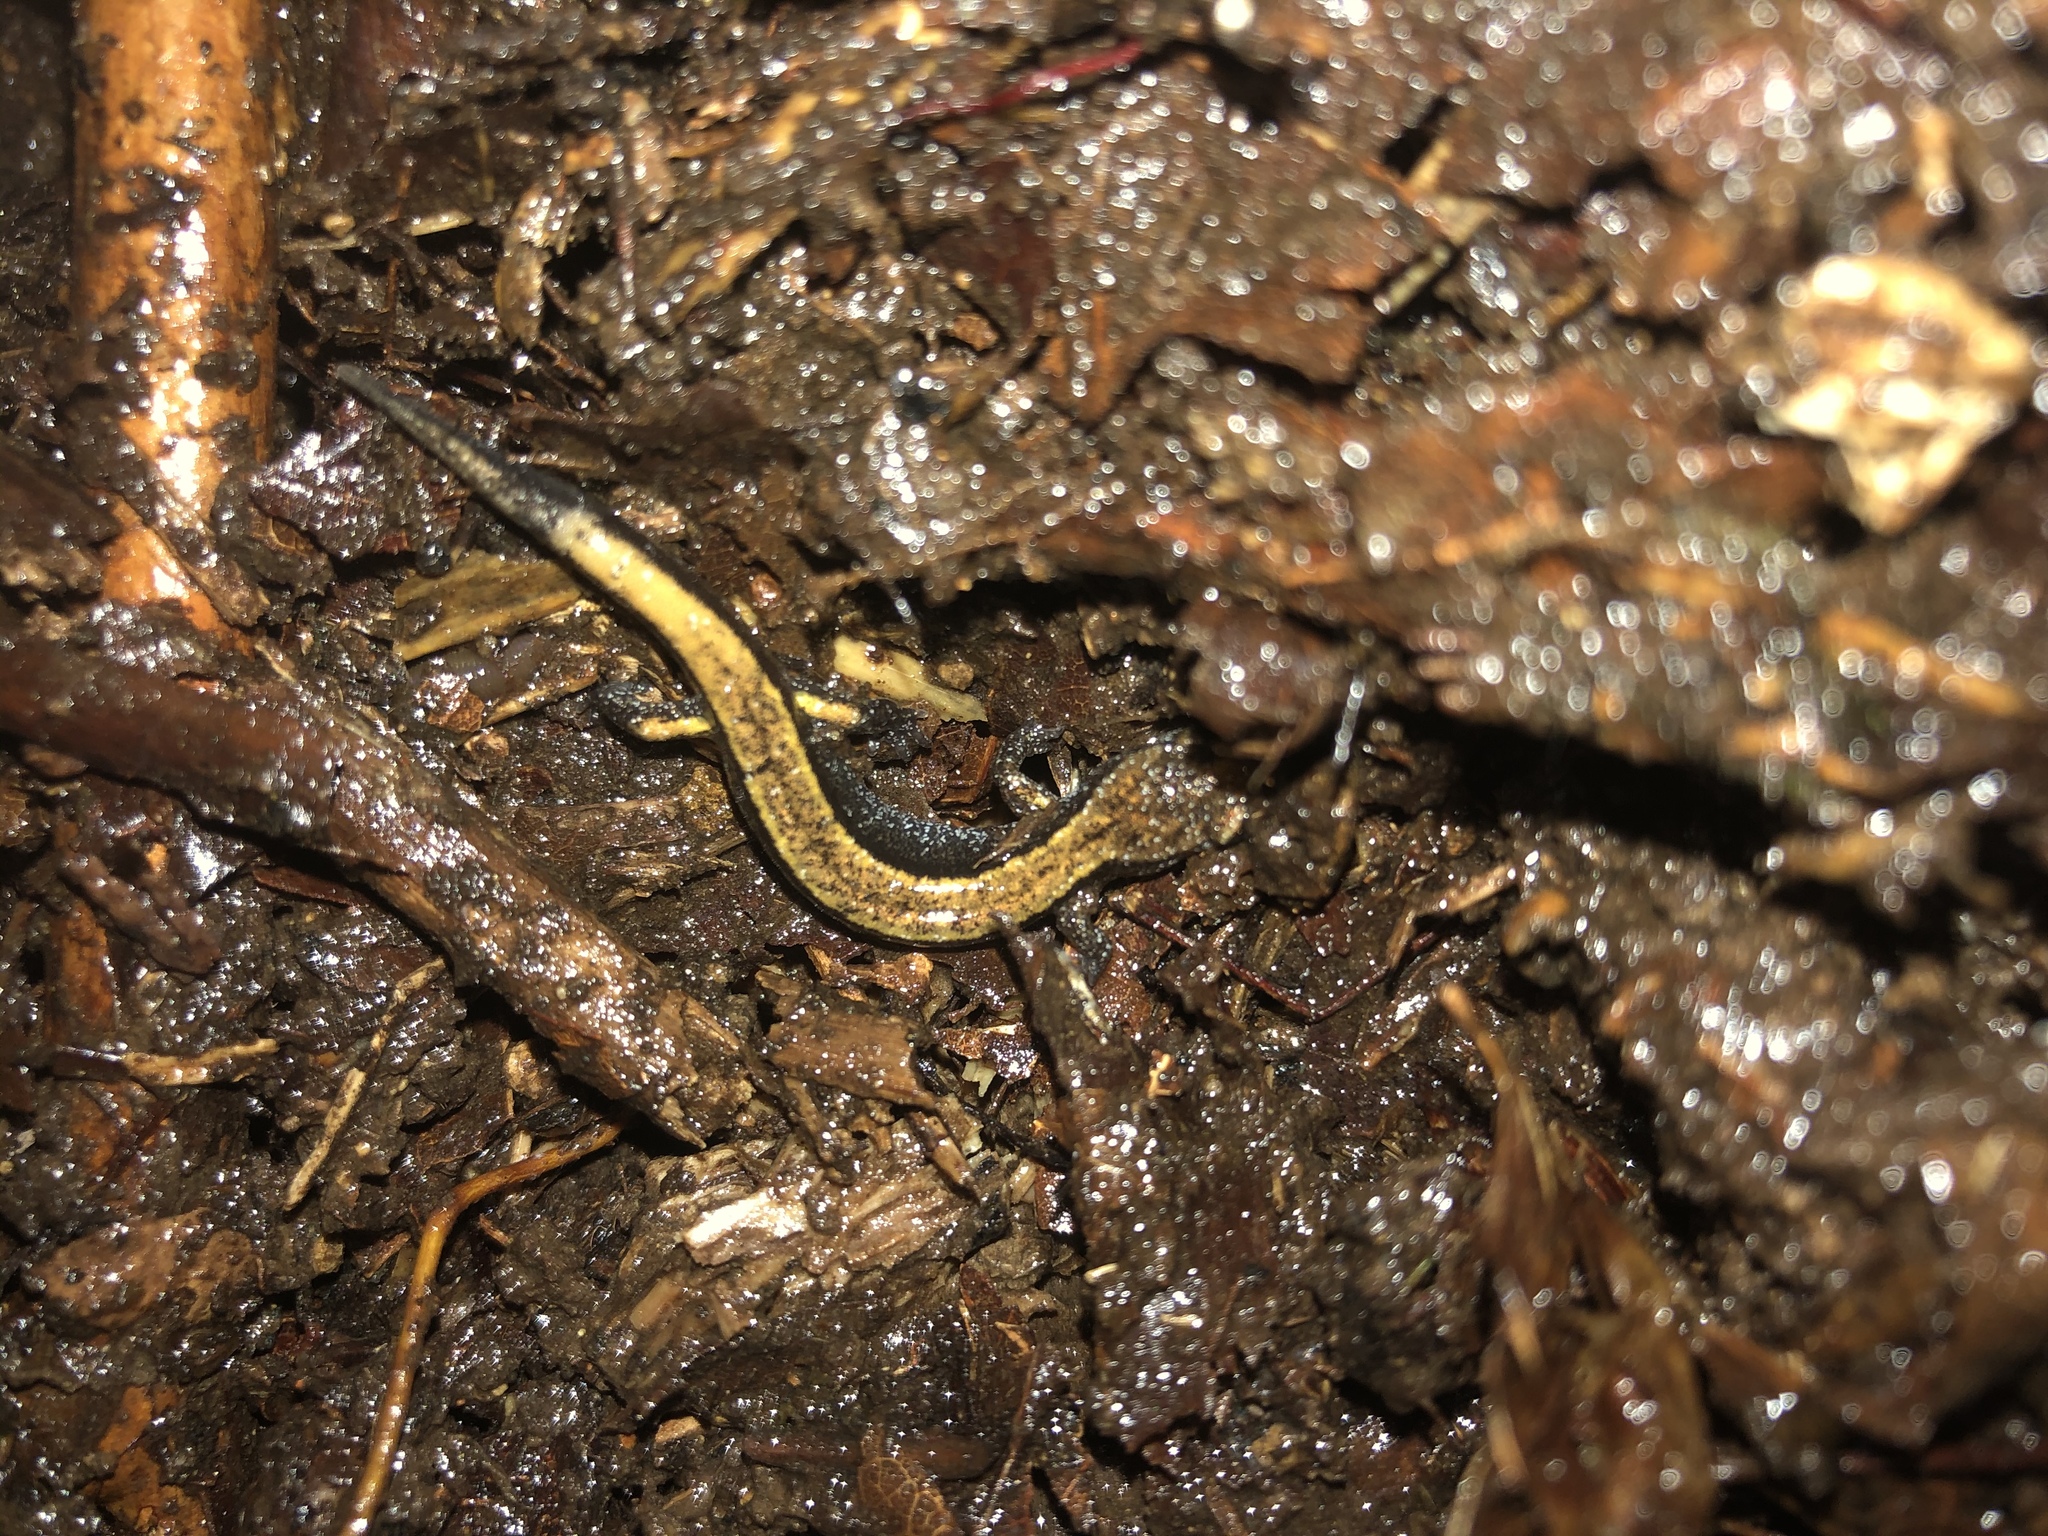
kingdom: Animalia
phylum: Chordata
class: Amphibia
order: Caudata
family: Plethodontidae
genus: Plethodon
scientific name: Plethodon vehiculum
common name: Western red-backed salamander
